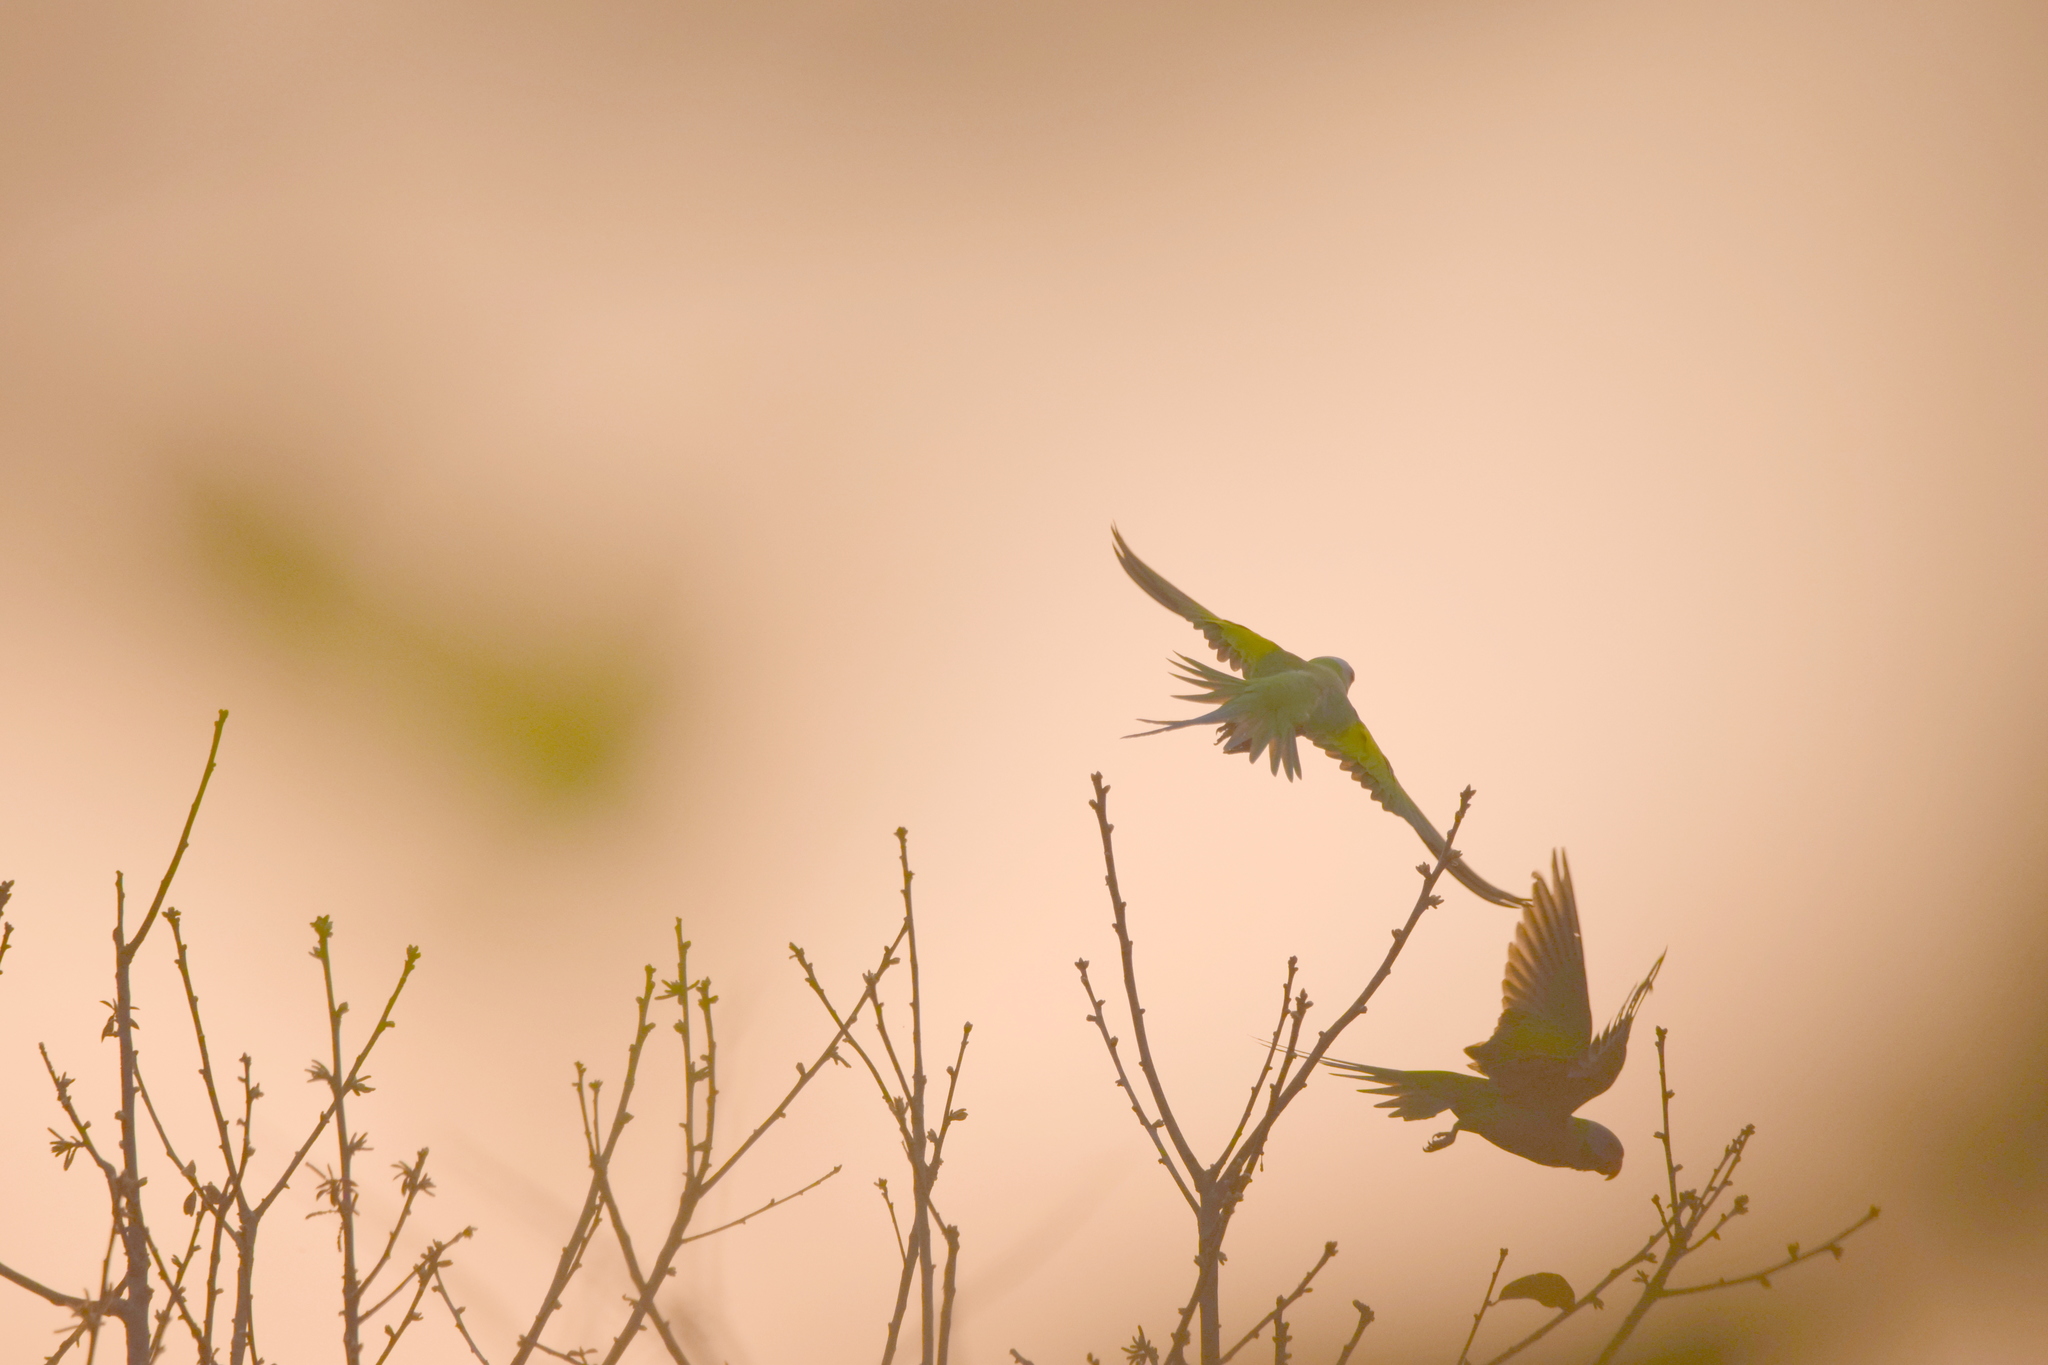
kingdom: Animalia
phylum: Chordata
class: Aves
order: Psittaciformes
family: Psittacidae
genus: Psittacula
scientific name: Psittacula alexandri
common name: Red-breasted parakeet
